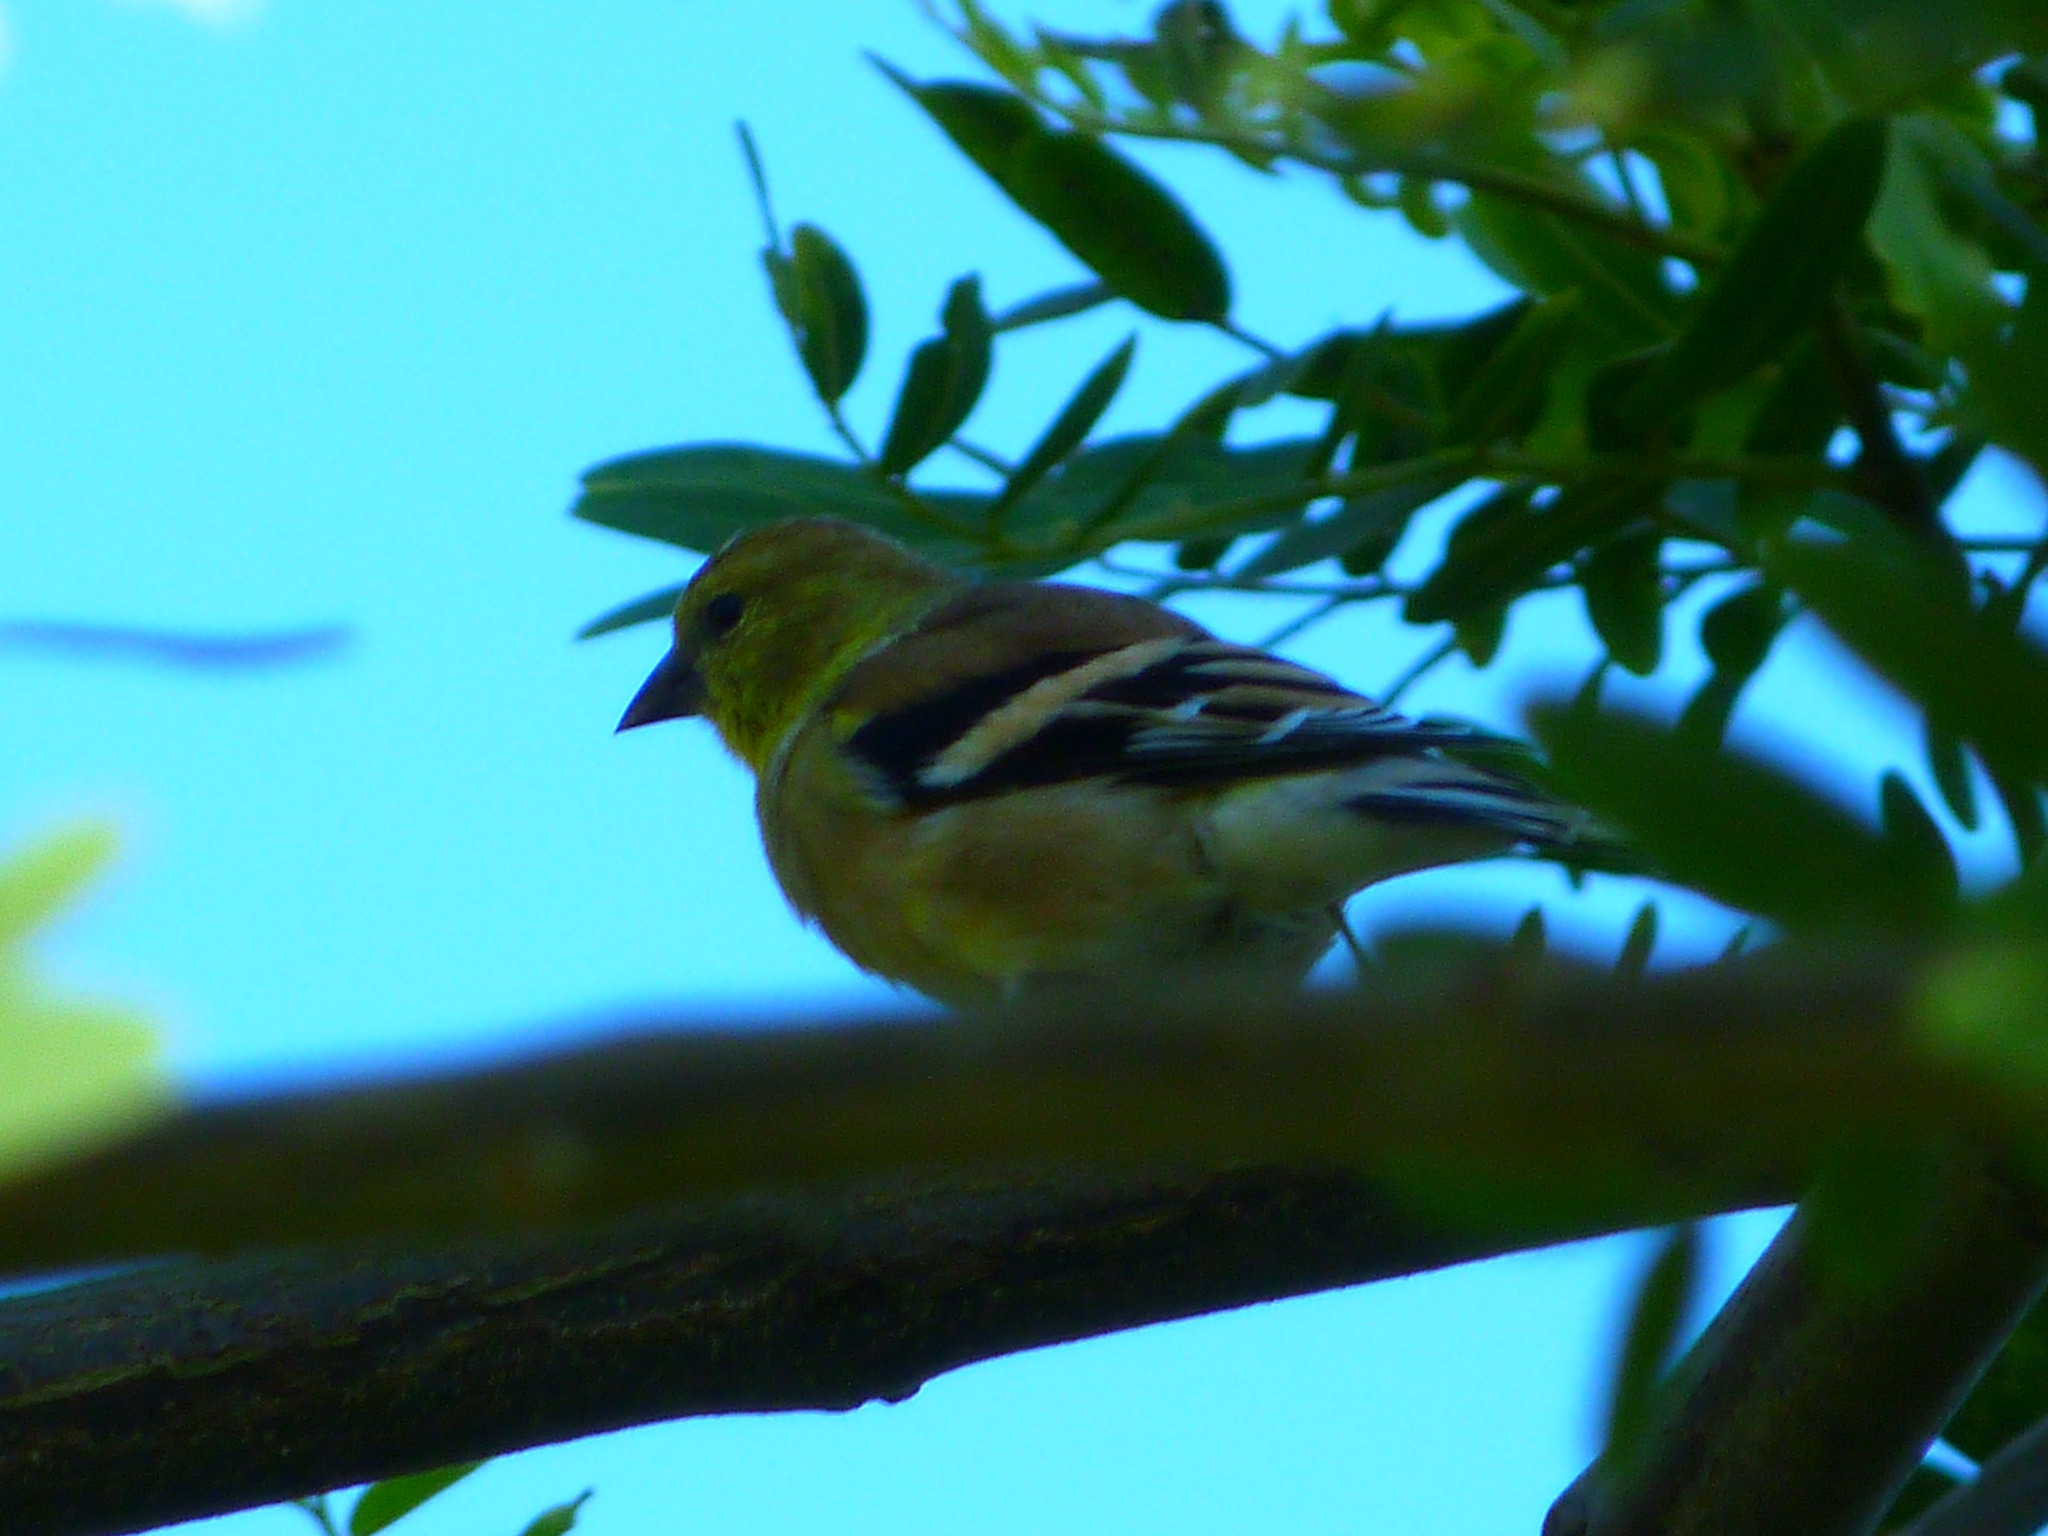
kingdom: Animalia
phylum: Chordata
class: Aves
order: Passeriformes
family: Fringillidae
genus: Spinus
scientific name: Spinus tristis
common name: American goldfinch
